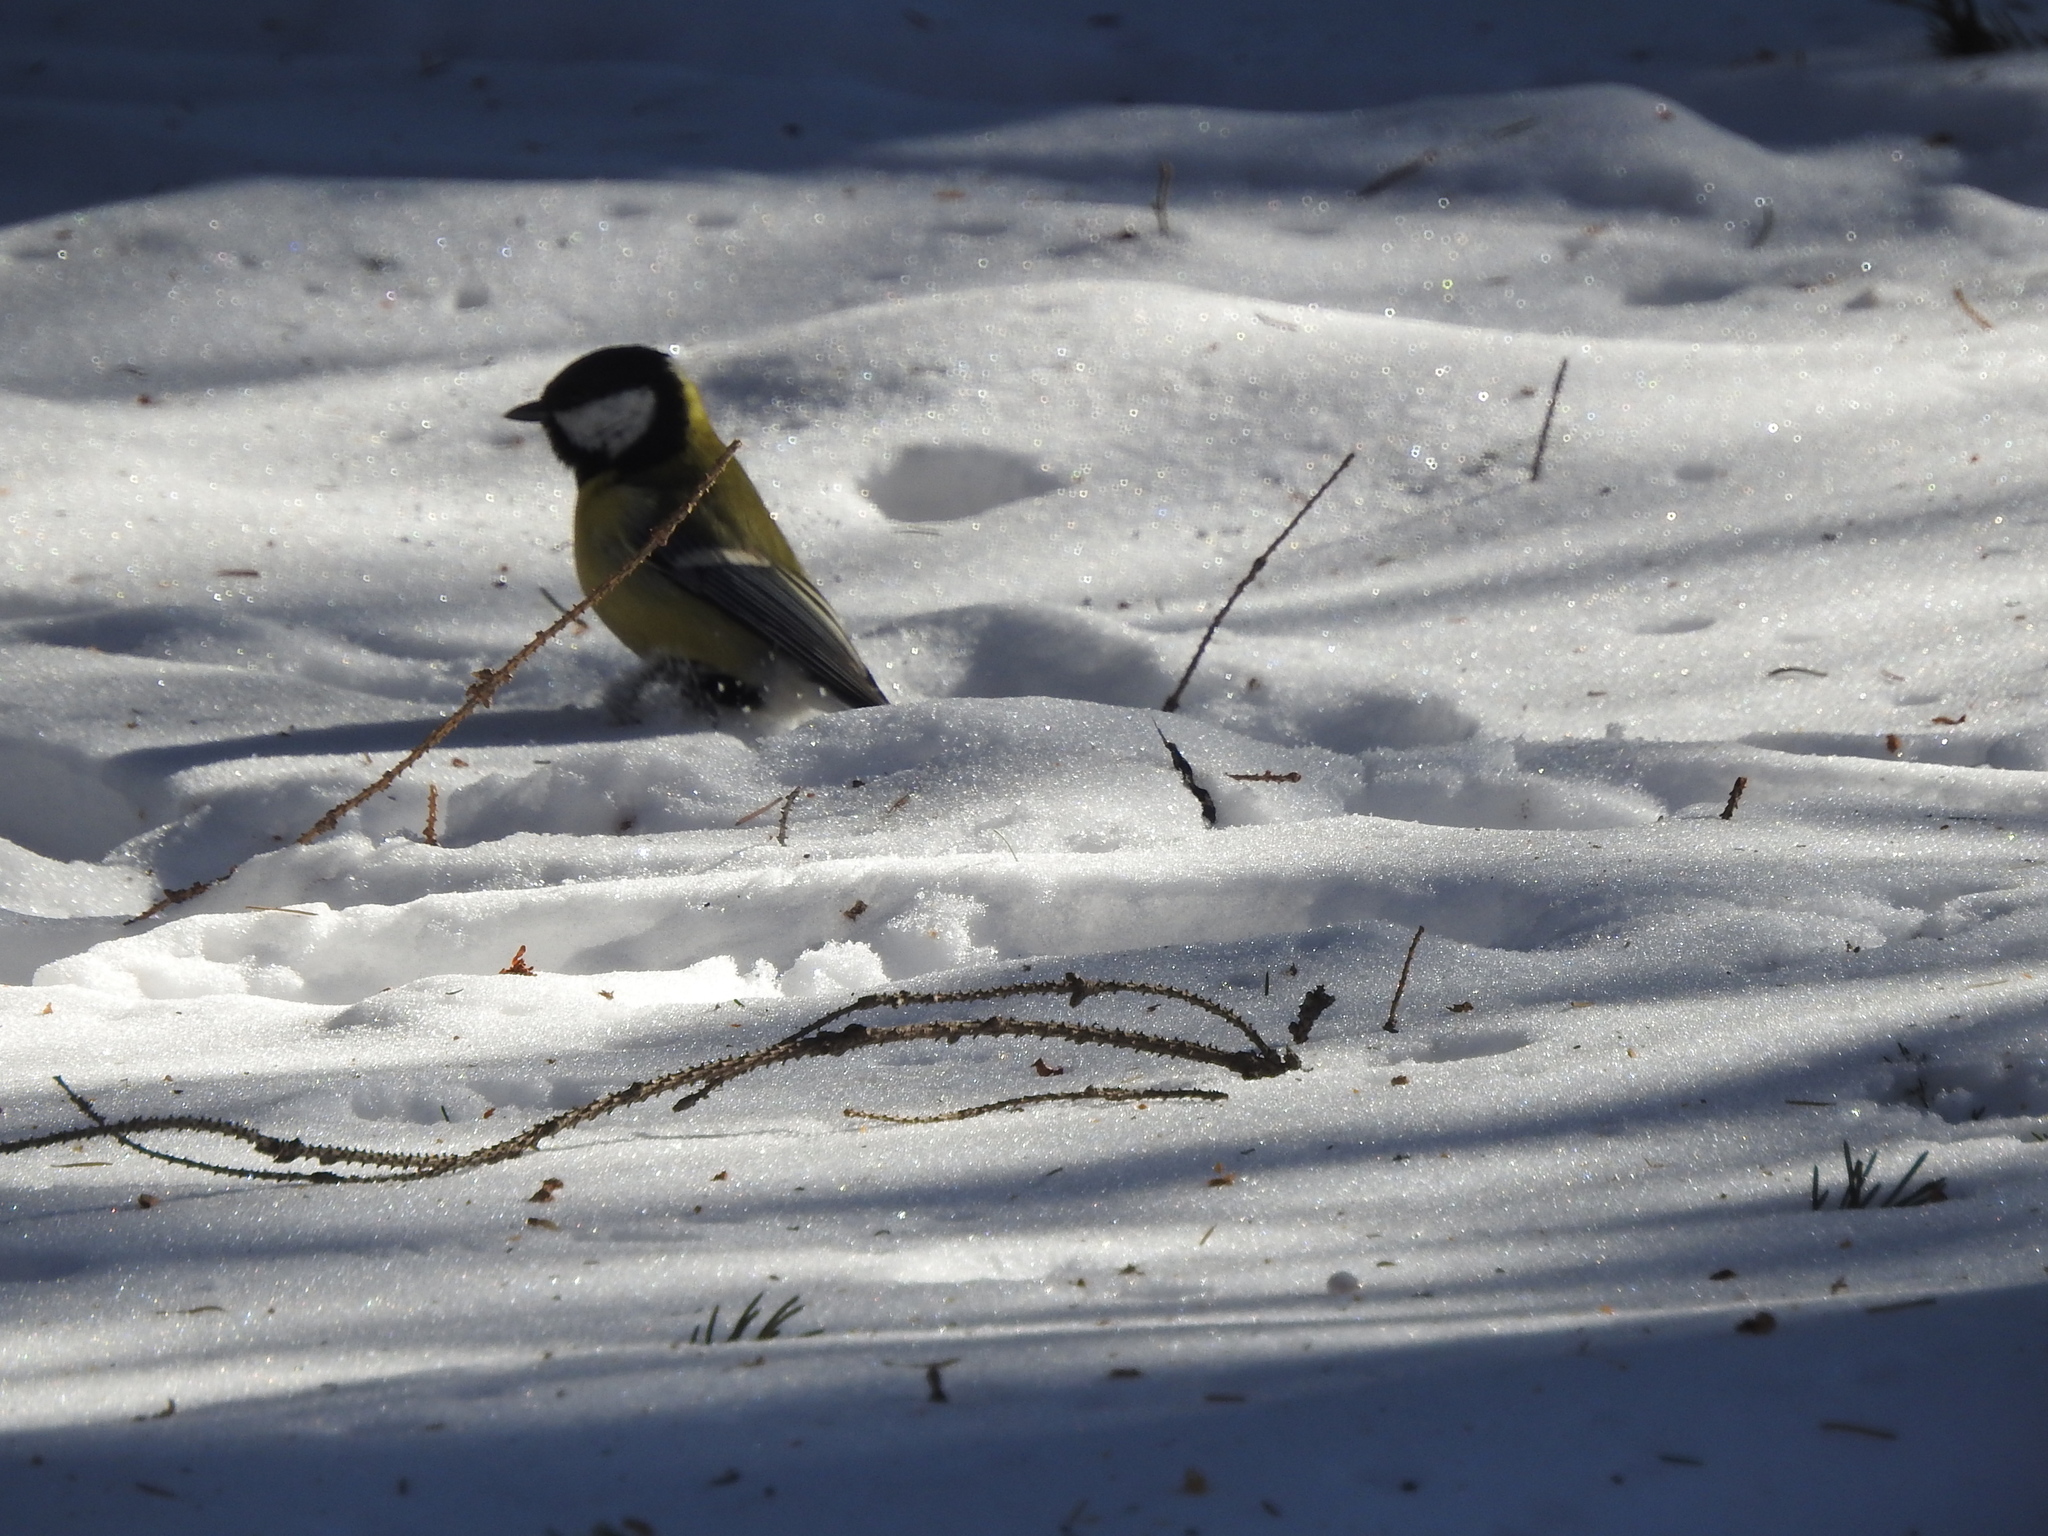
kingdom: Animalia
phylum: Chordata
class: Aves
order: Passeriformes
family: Paridae
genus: Parus
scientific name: Parus major
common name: Great tit
